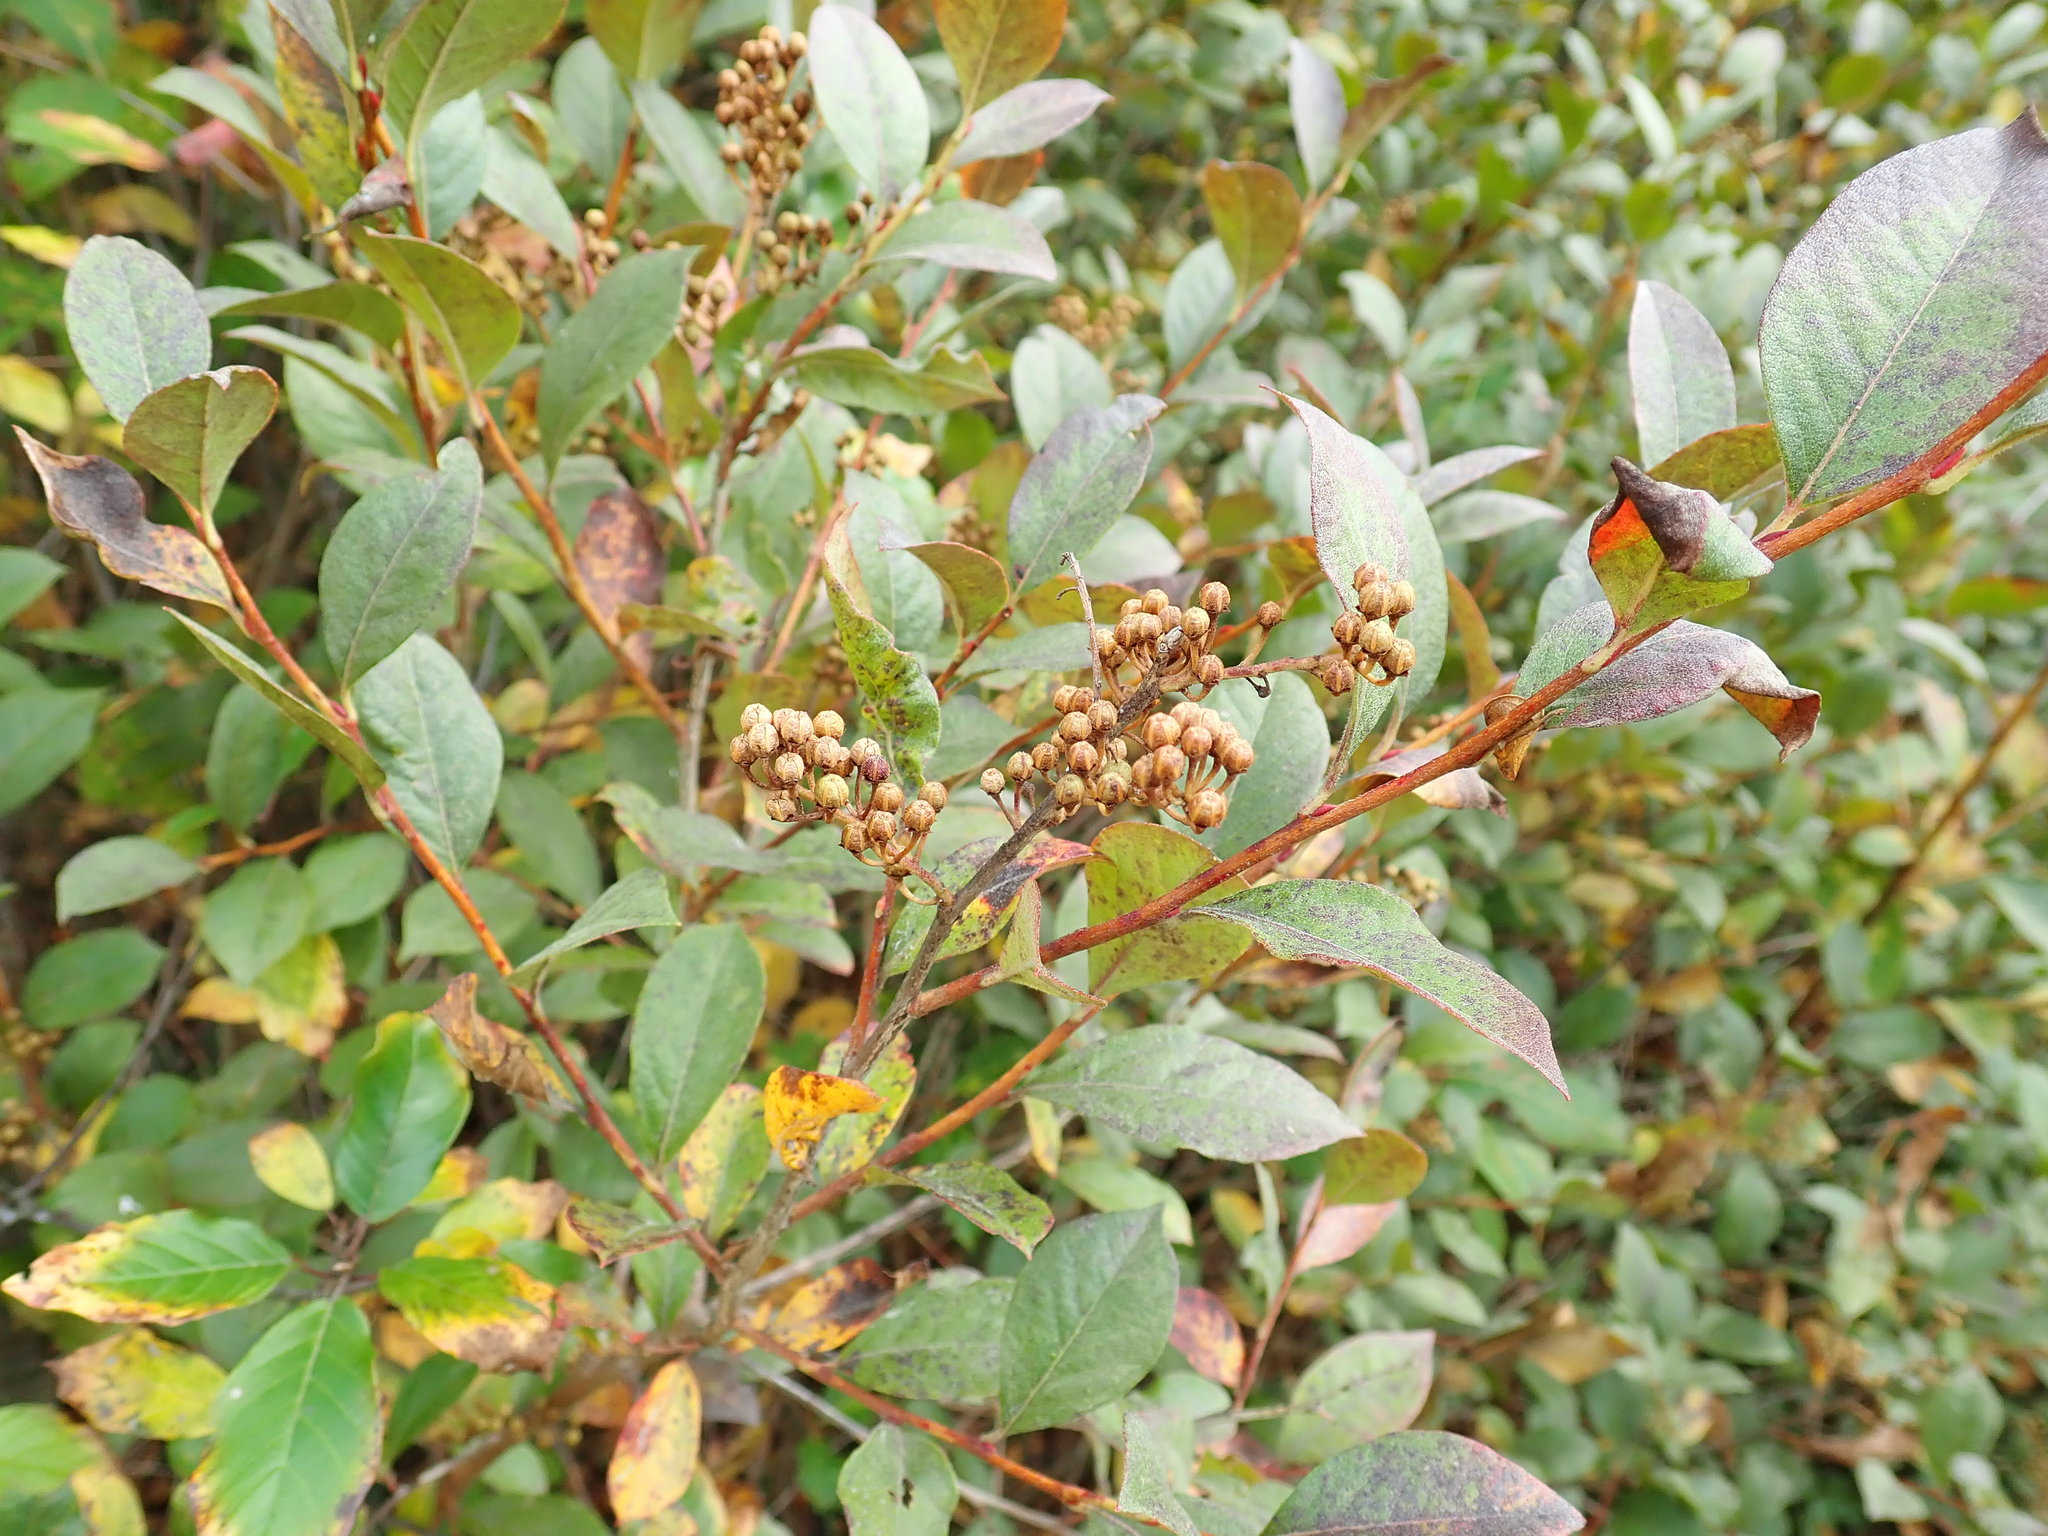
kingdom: Plantae
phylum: Tracheophyta
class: Magnoliopsida
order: Ericales
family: Ericaceae
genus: Lyonia
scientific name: Lyonia ligustrina
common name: Maleberry
